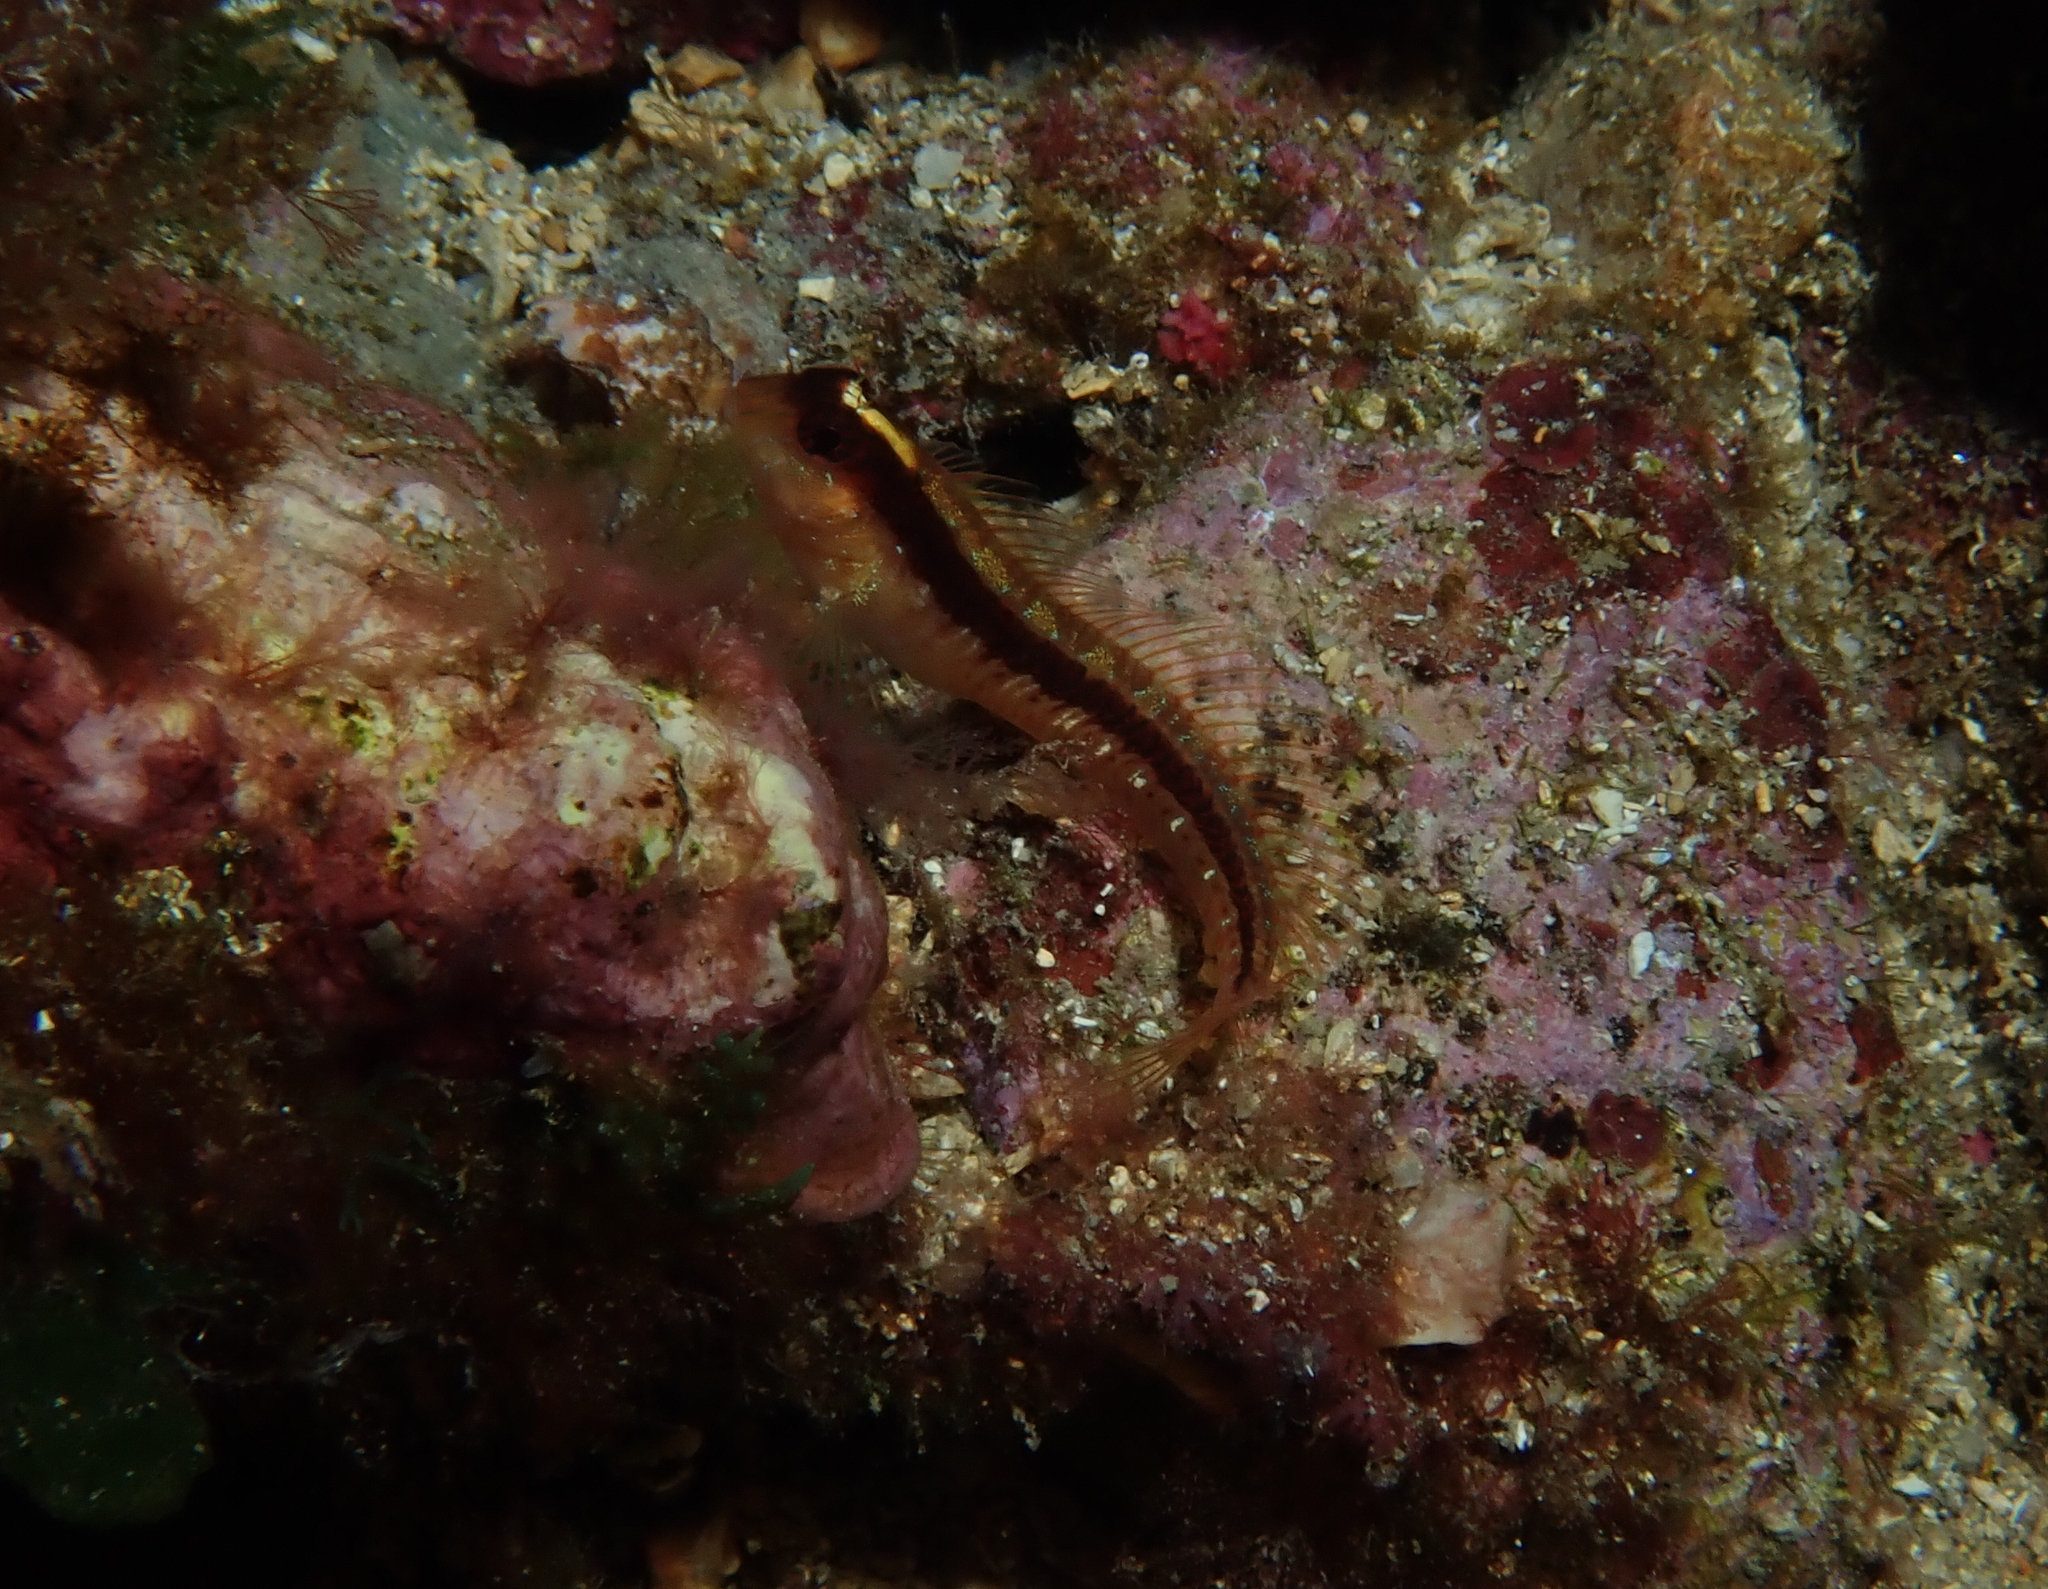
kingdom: Animalia
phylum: Chordata
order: Perciformes
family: Blenniidae
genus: Parablennius
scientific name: Parablennius rouxi
